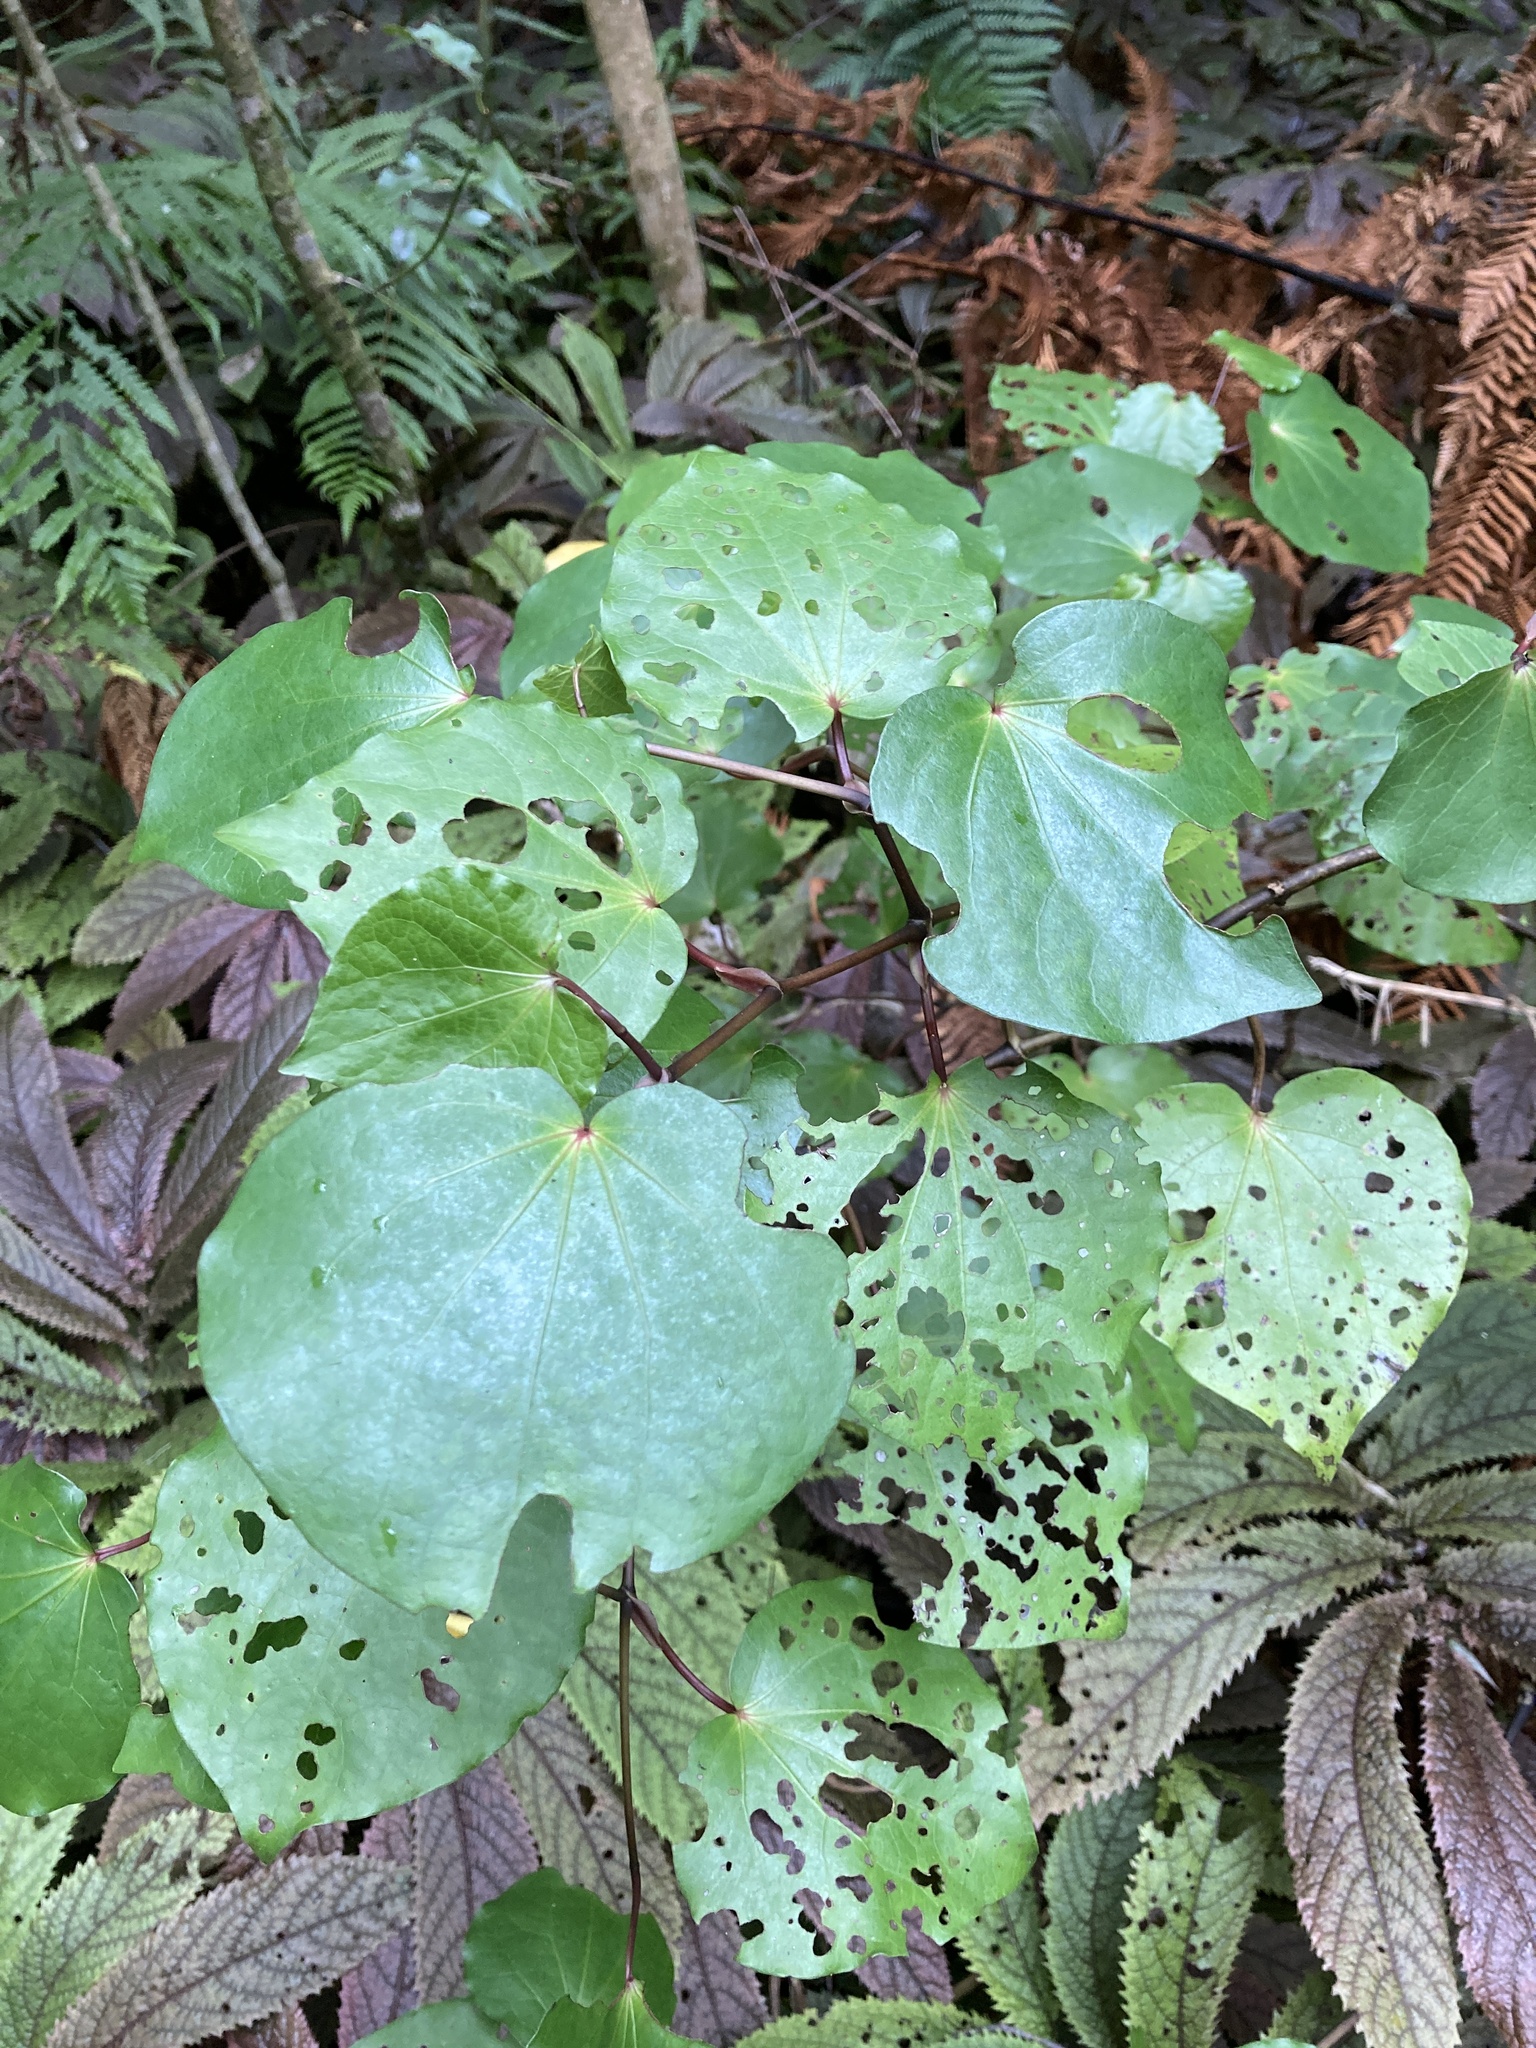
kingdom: Plantae
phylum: Tracheophyta
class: Magnoliopsida
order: Piperales
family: Piperaceae
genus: Macropiper
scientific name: Macropiper excelsum
